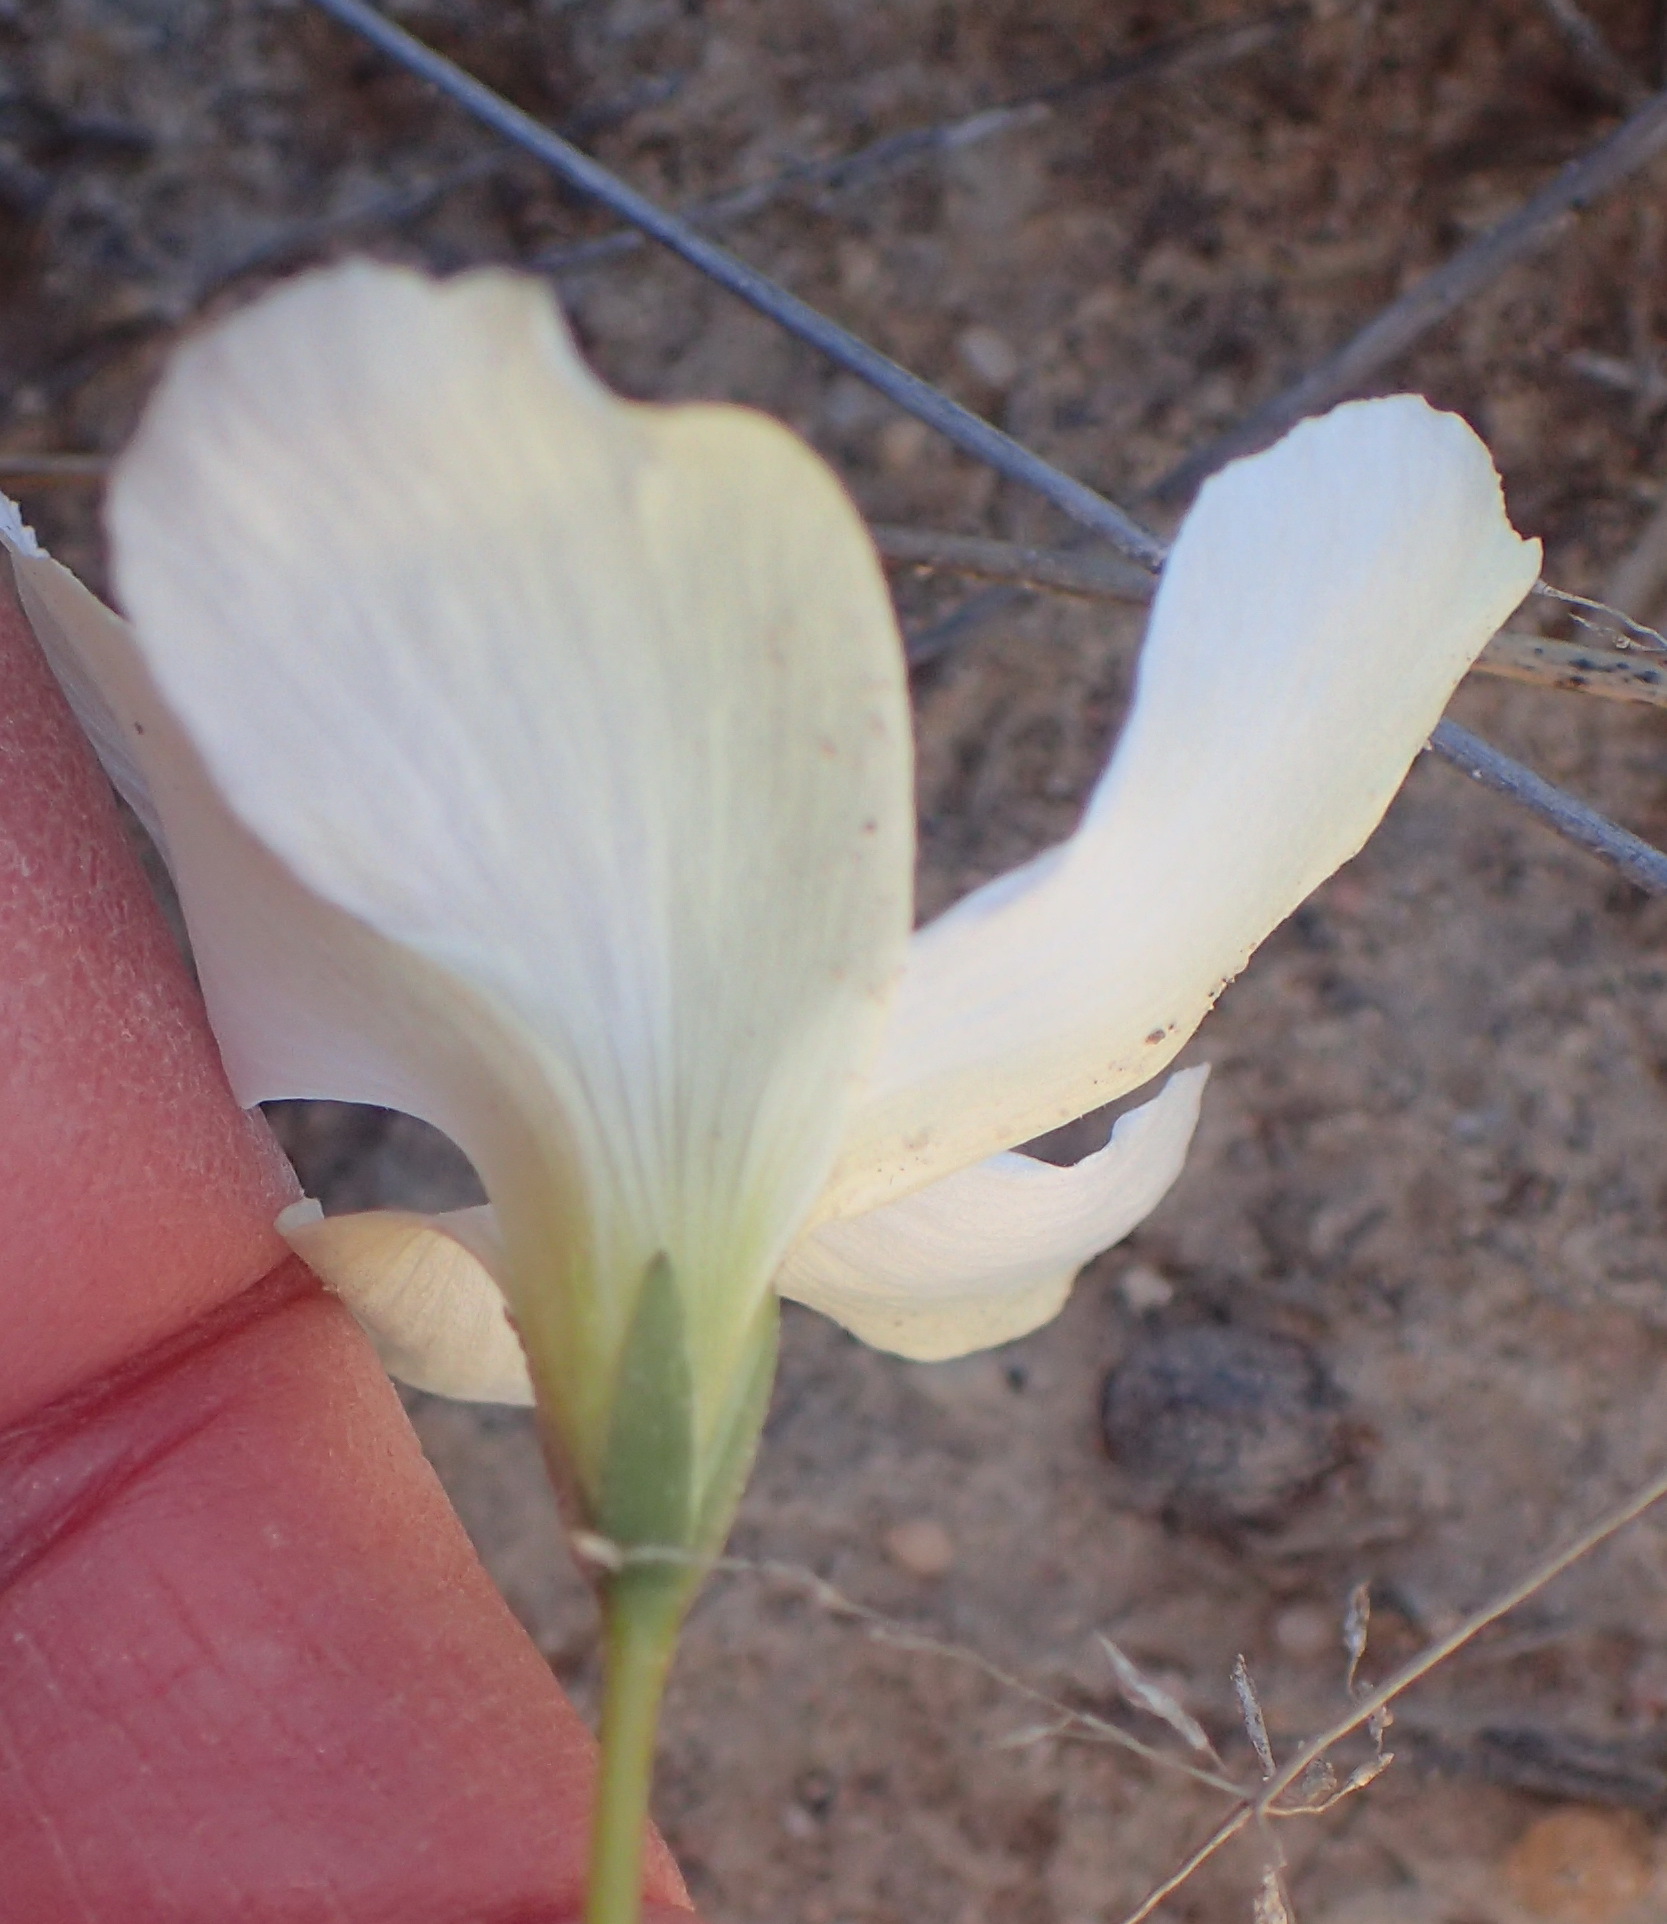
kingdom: Plantae
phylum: Tracheophyta
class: Magnoliopsida
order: Oxalidales
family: Oxalidaceae
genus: Oxalis
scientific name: Oxalis smithiana
